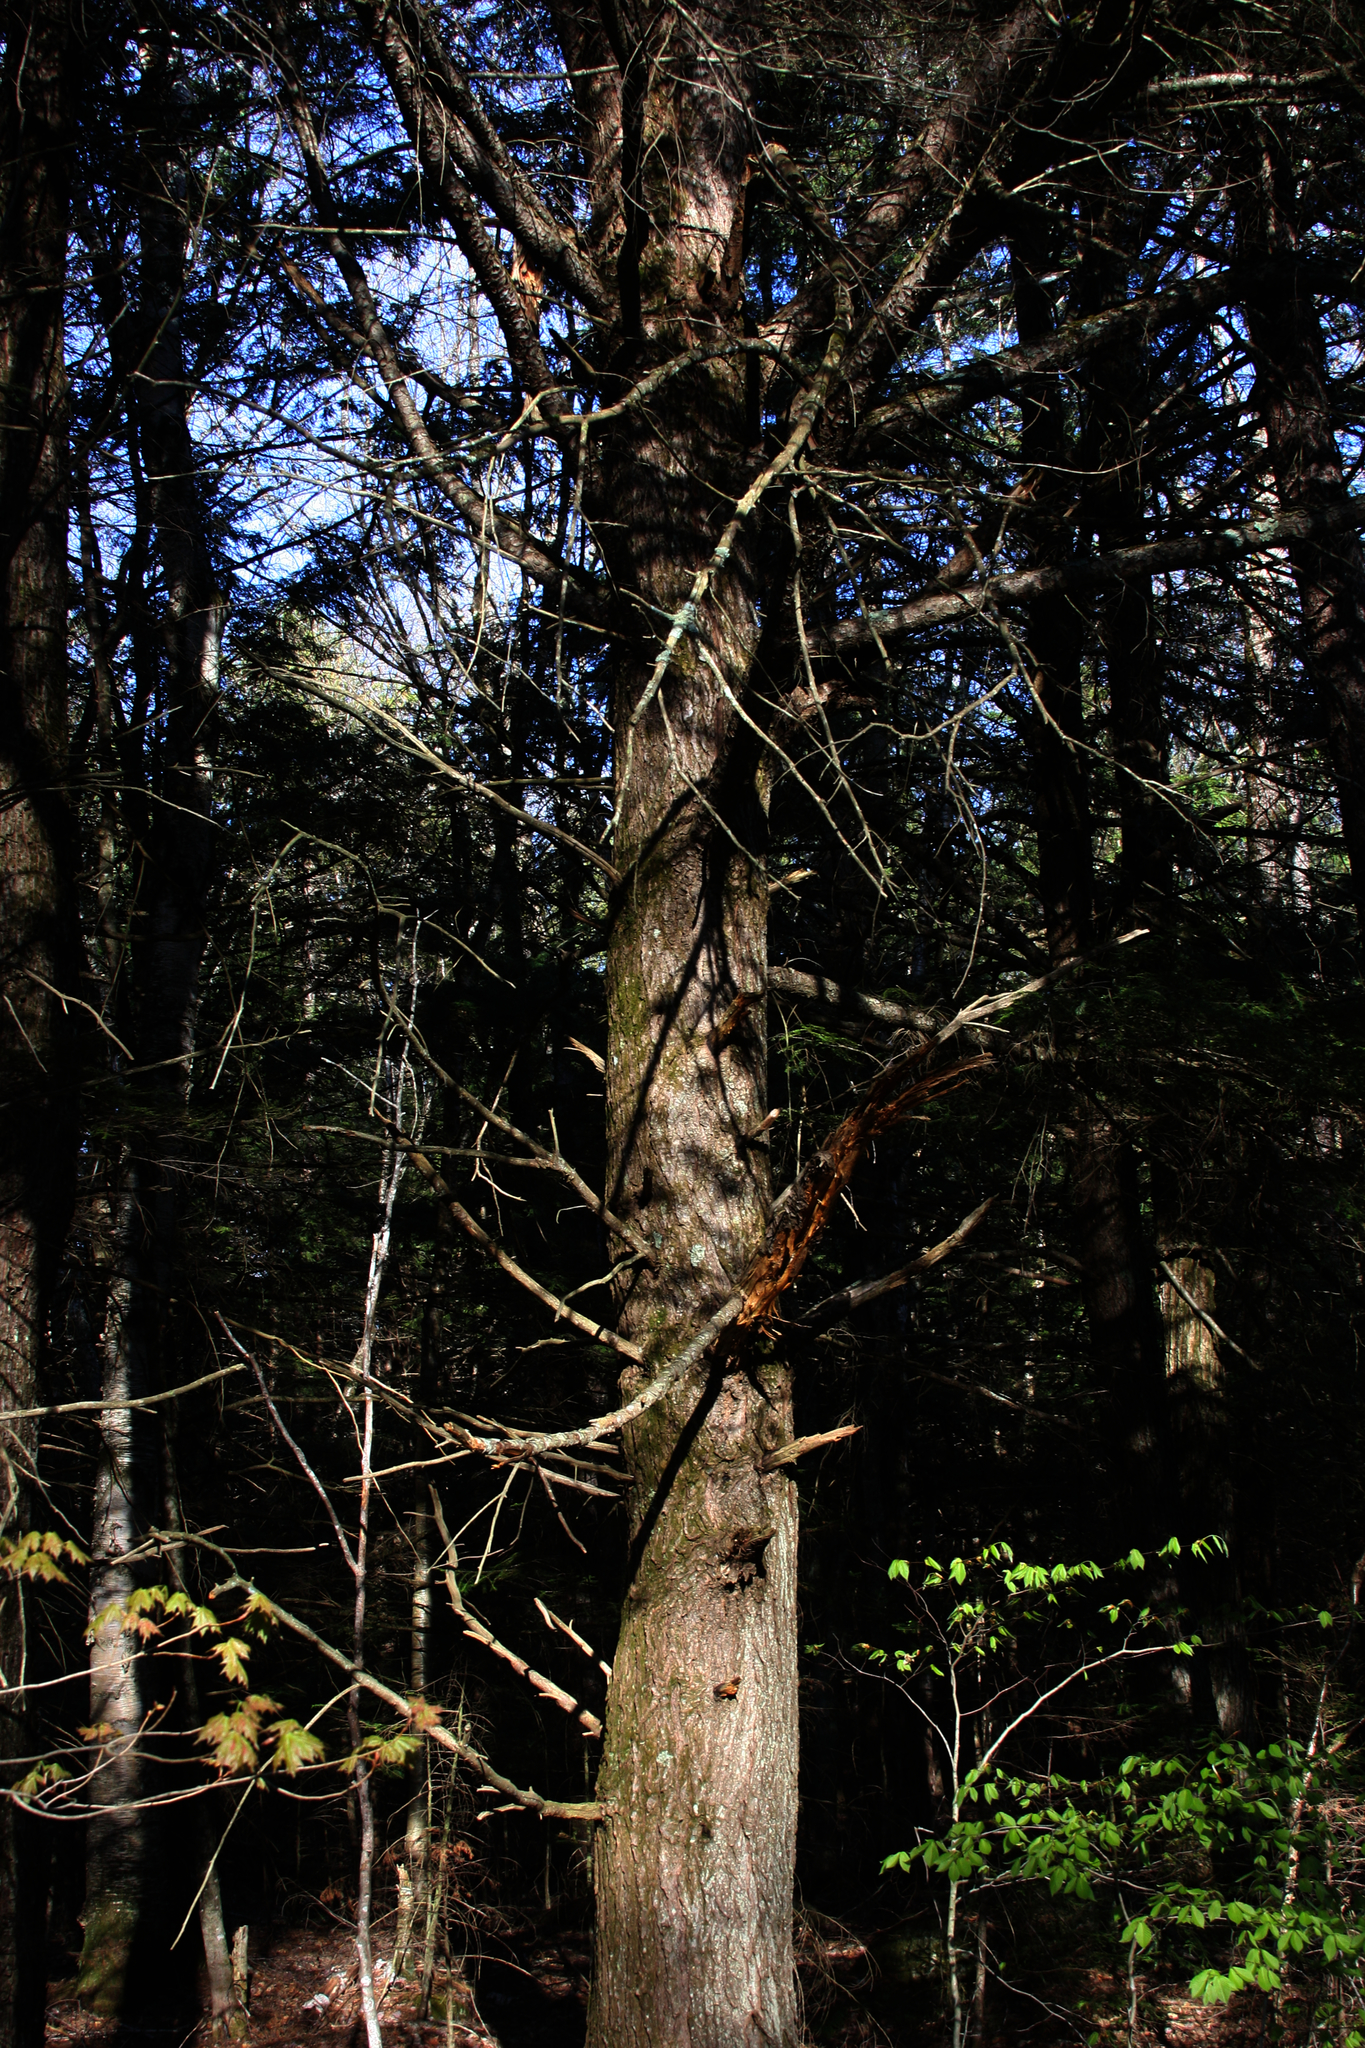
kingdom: Plantae
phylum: Tracheophyta
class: Pinopsida
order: Pinales
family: Pinaceae
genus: Tsuga
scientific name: Tsuga canadensis
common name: Eastern hemlock
